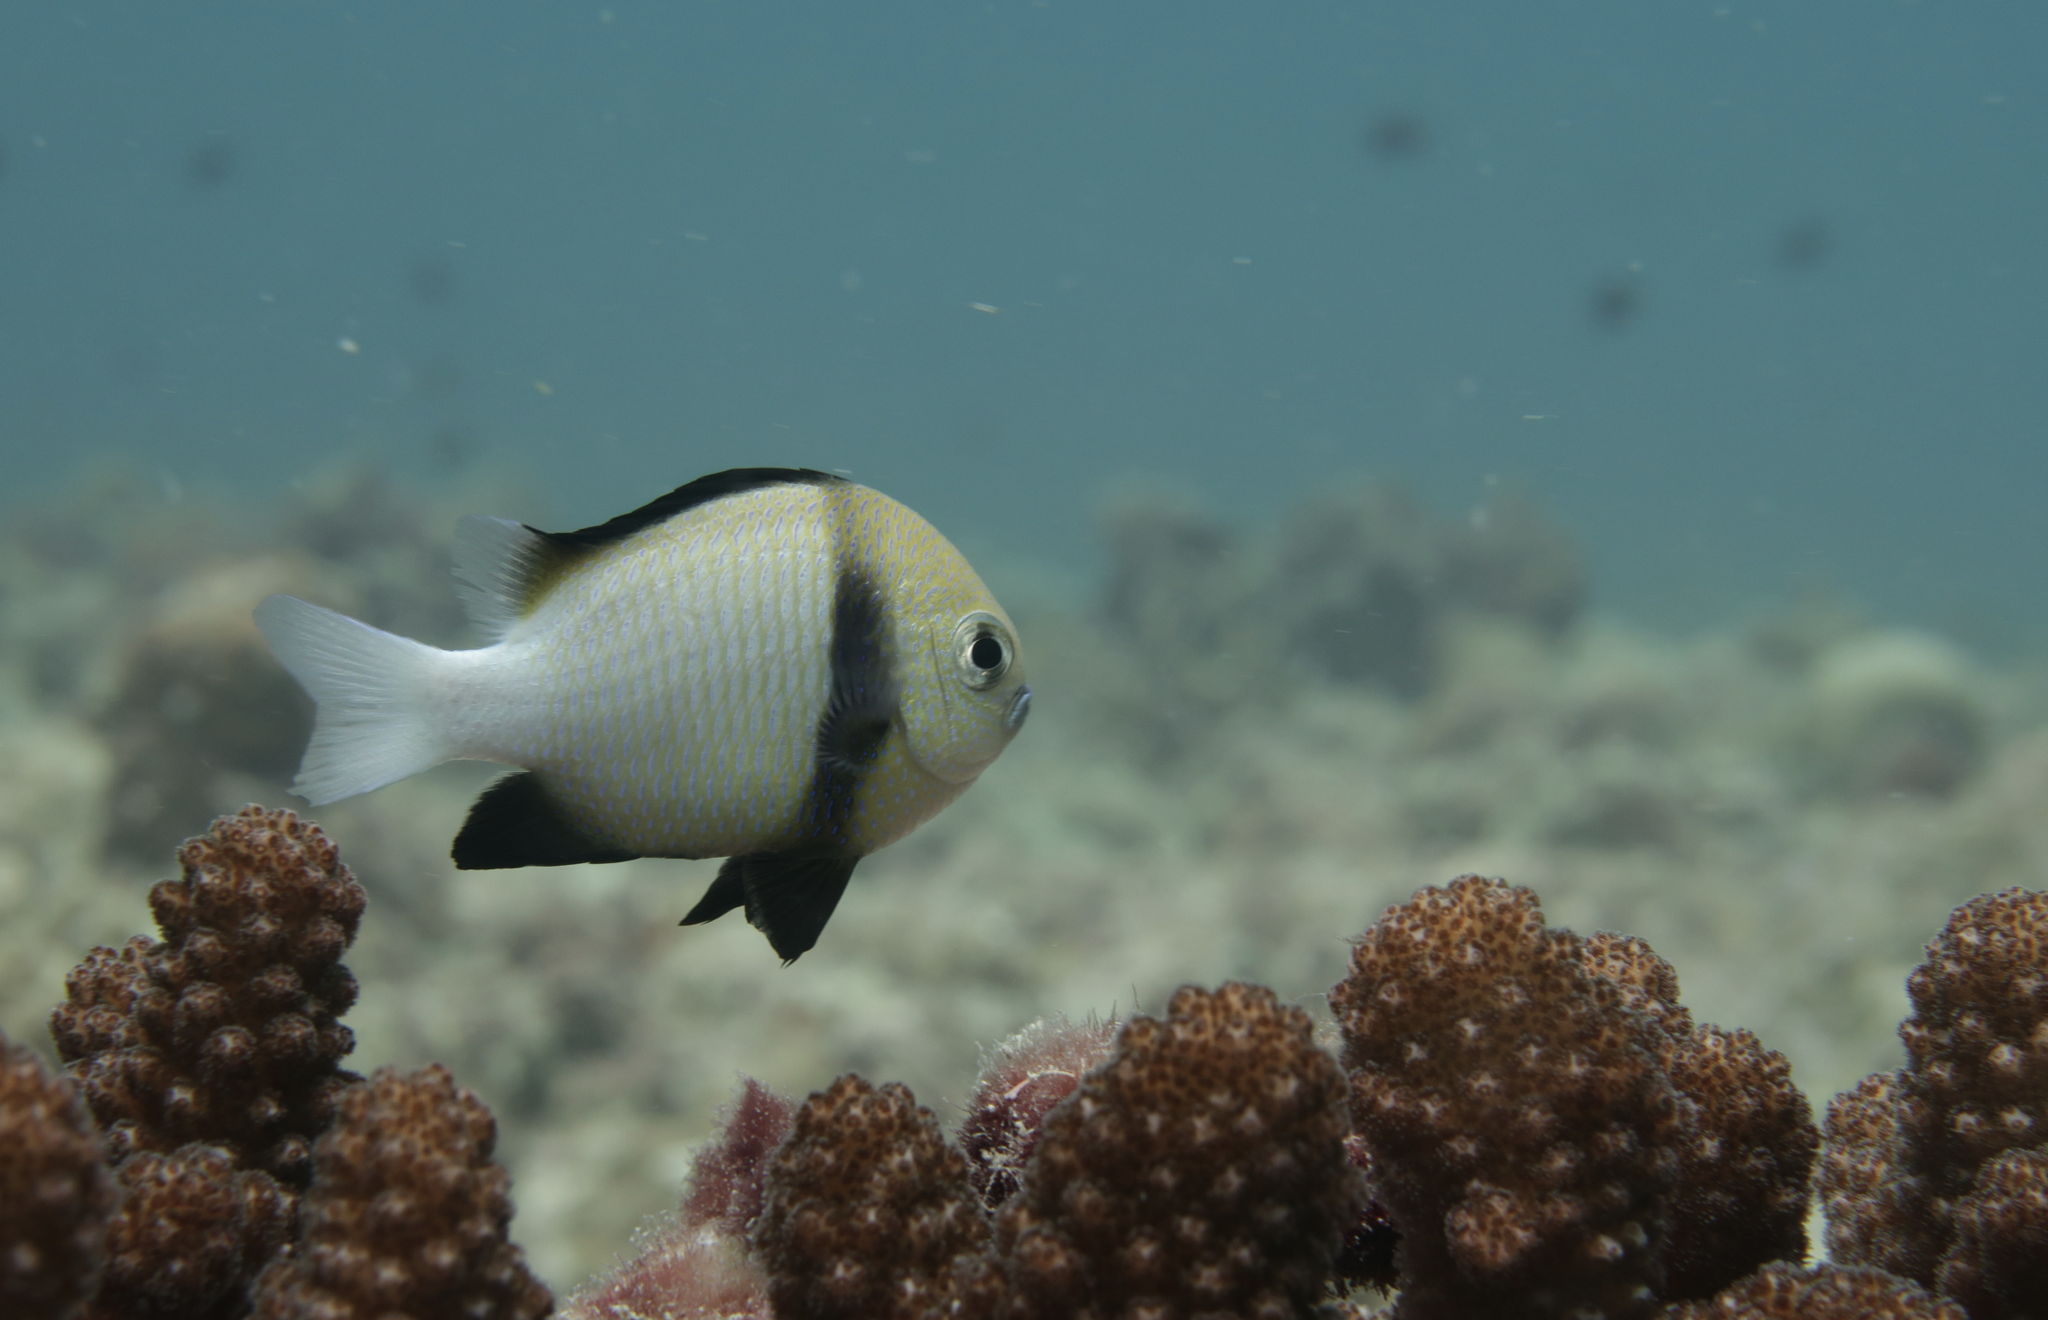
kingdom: Animalia
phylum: Chordata
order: Perciformes
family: Pomacentridae
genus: Dascyllus
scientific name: Dascyllus carneus
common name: Indian dascyllus
